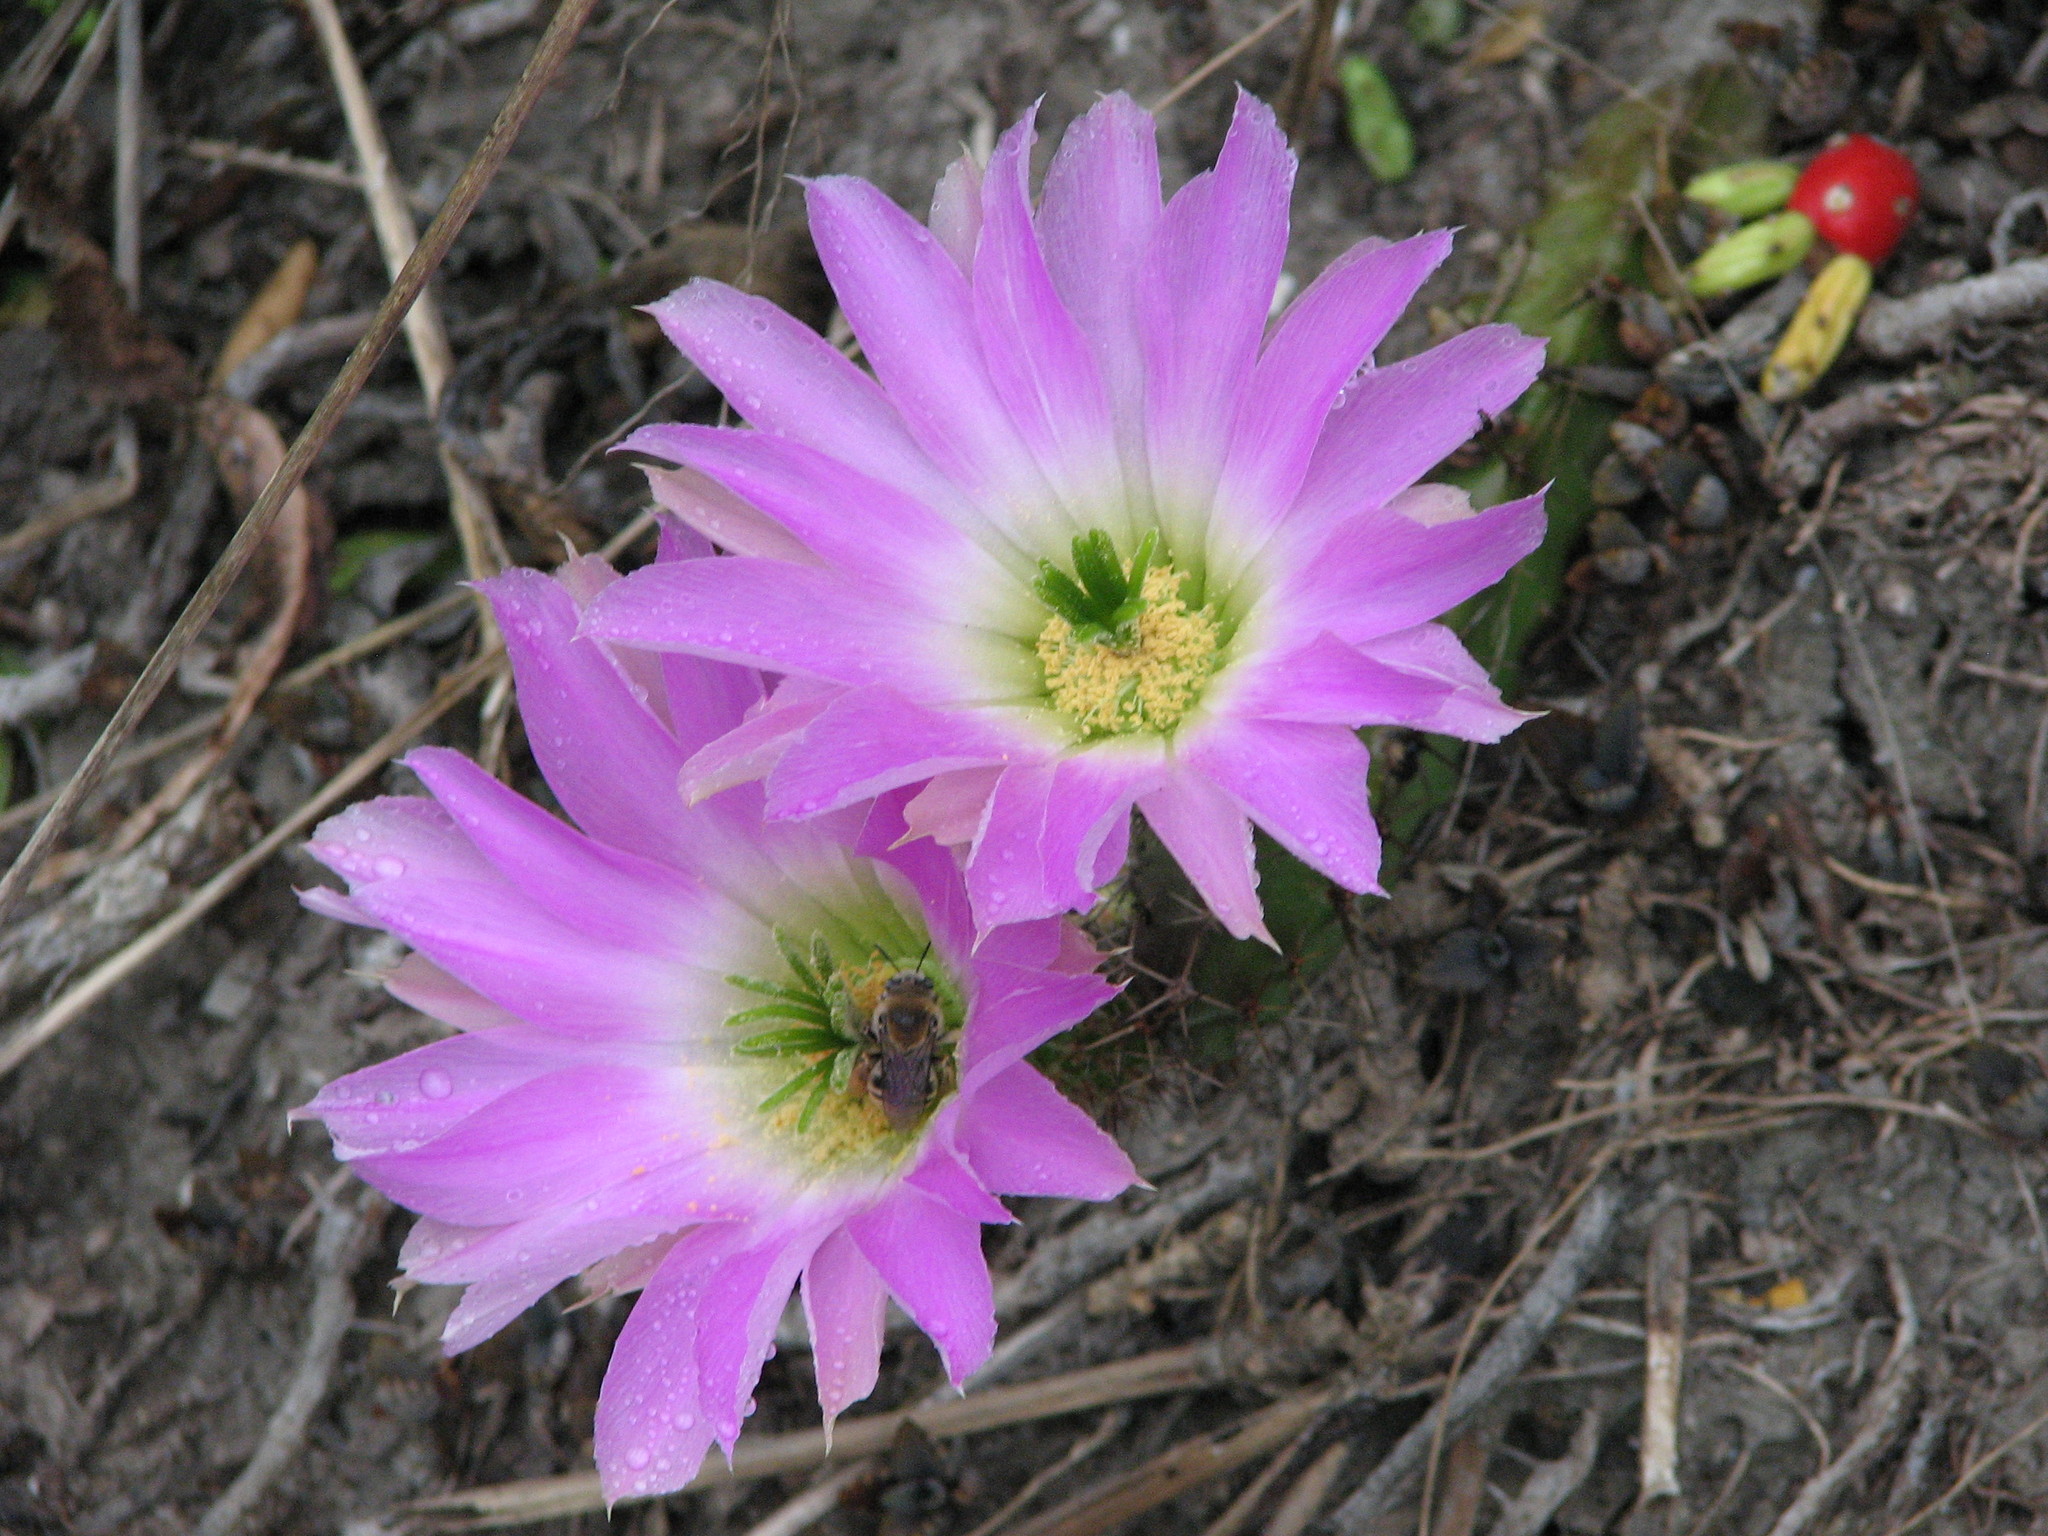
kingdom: Plantae
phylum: Tracheophyta
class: Magnoliopsida
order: Caryophyllales
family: Cactaceae
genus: Echinocereus
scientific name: Echinocereus pentalophus
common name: Ladyfinger cactus
